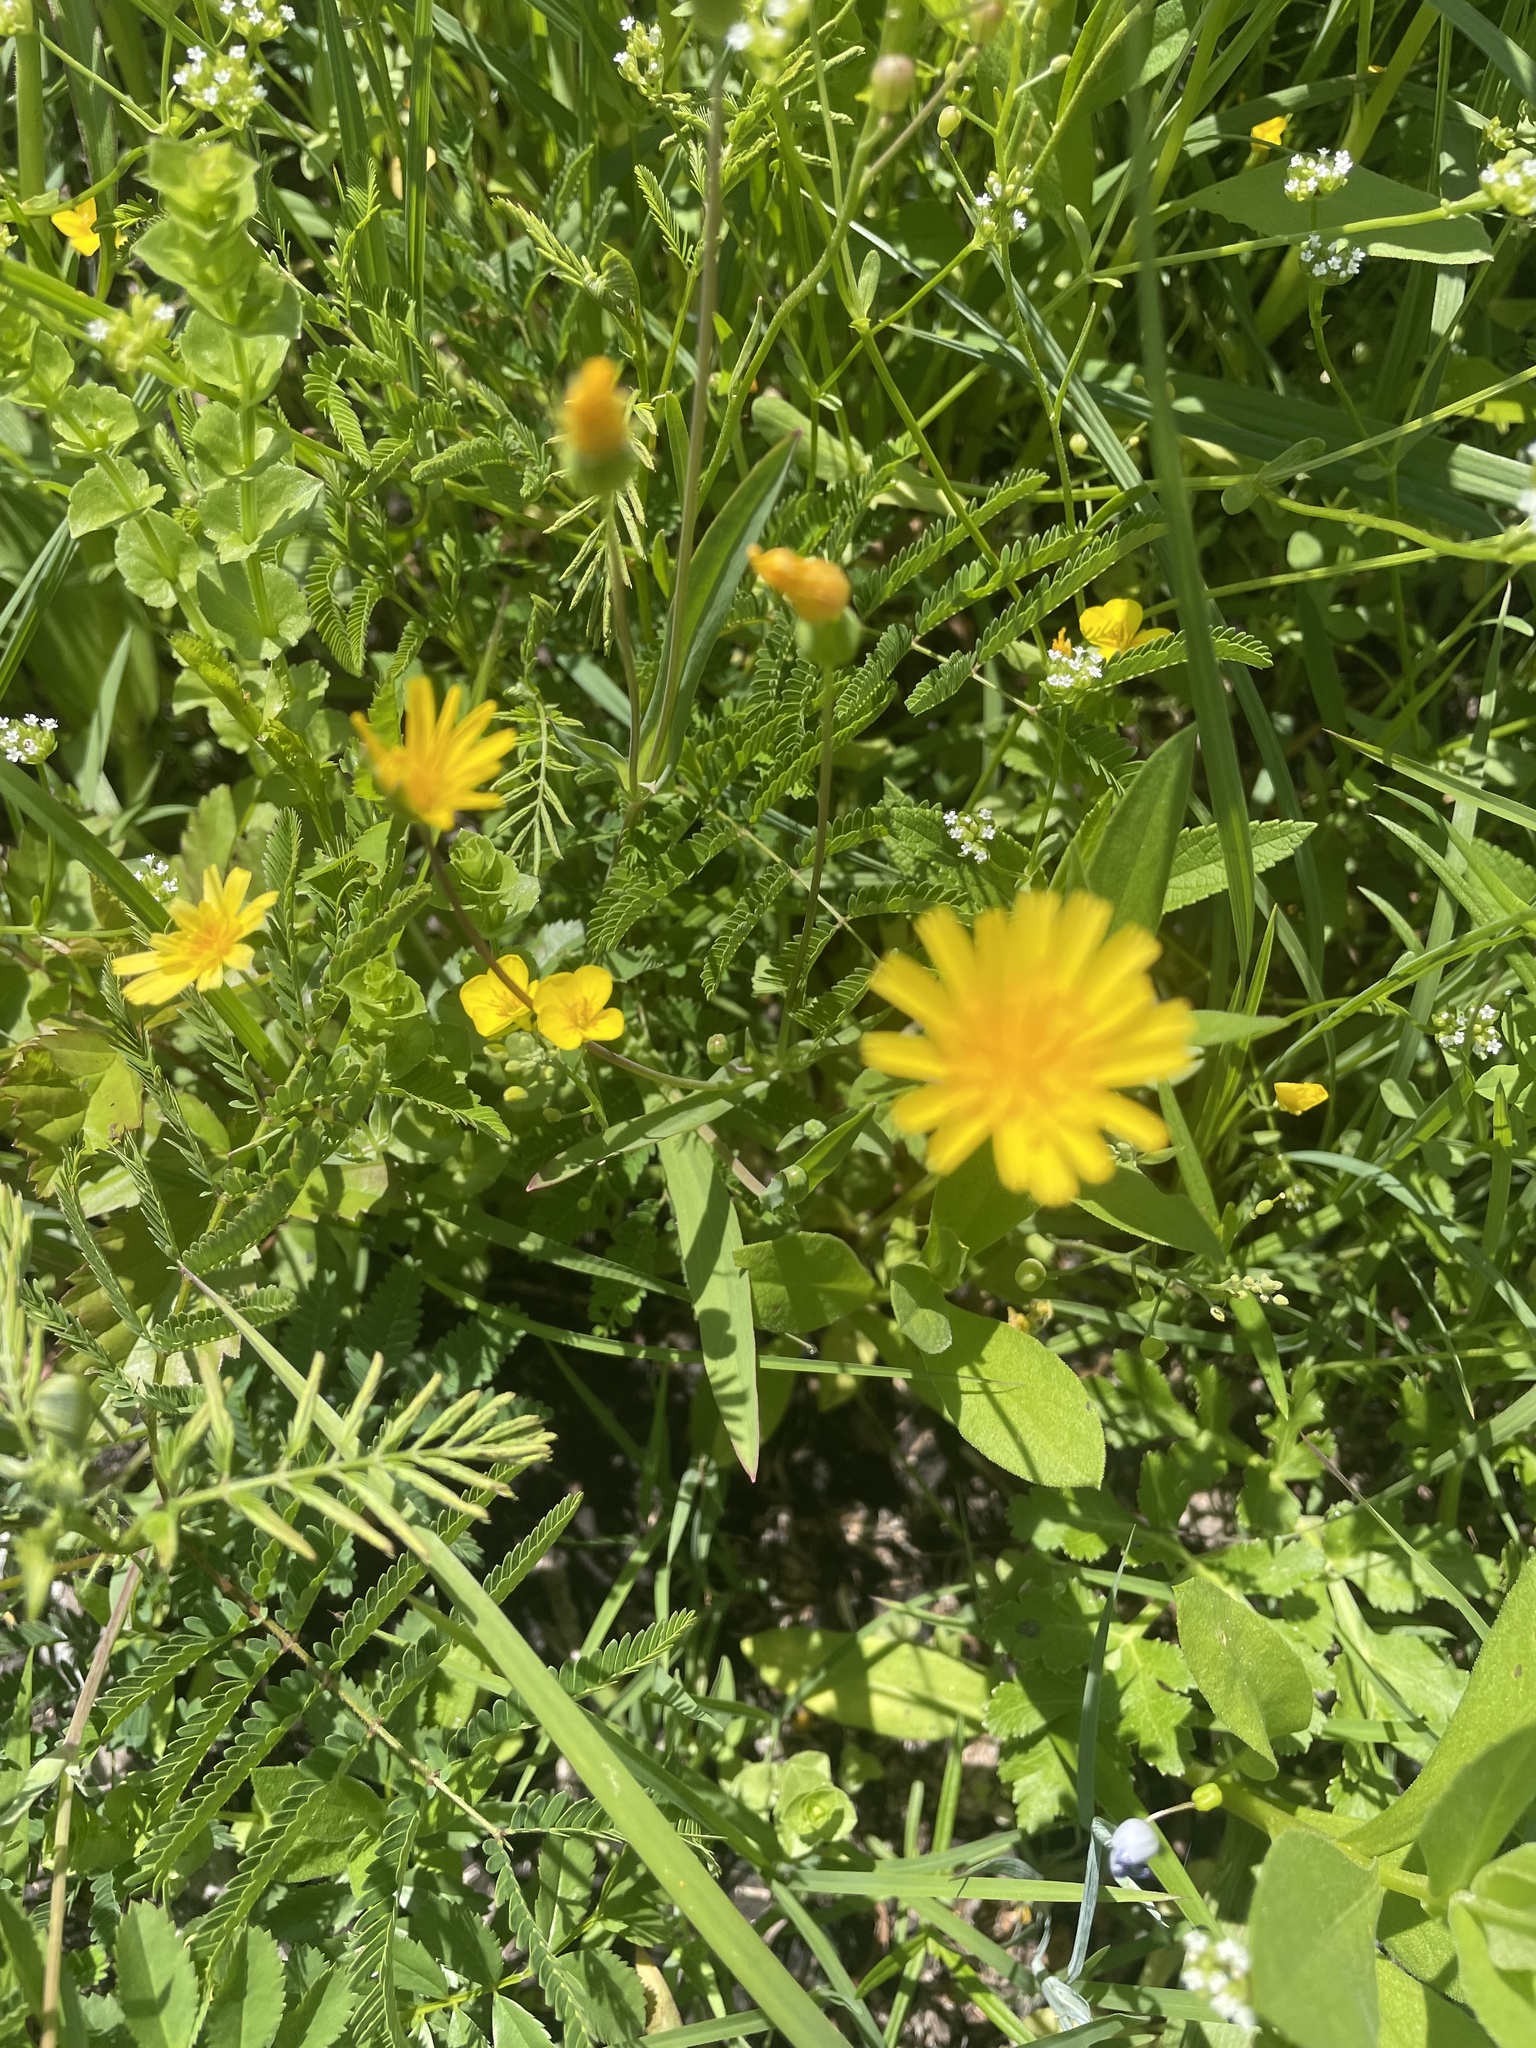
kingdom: Plantae
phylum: Tracheophyta
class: Magnoliopsida
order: Asterales
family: Asteraceae
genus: Krigia
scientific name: Krigia cespitosa
